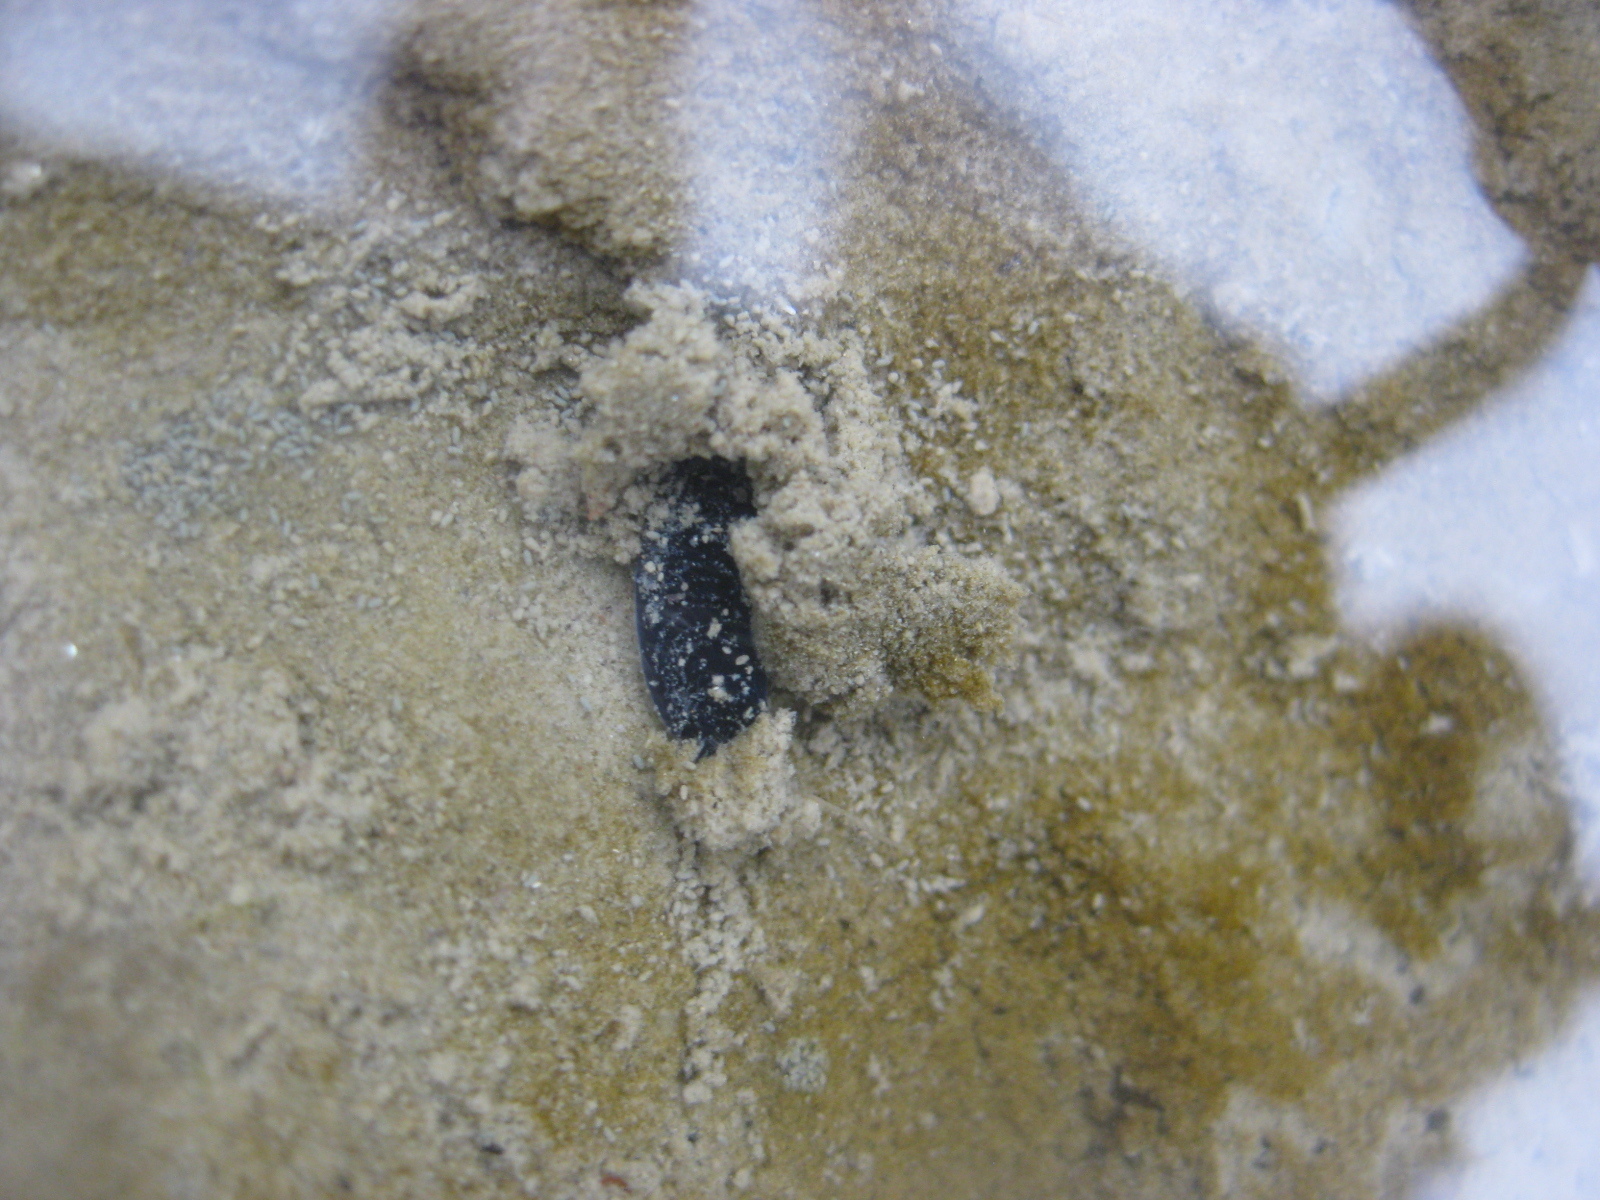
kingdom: Animalia
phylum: Mollusca
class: Gastropoda
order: Cephalaspidea
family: Aglajidae
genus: Melanochlamys
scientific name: Melanochlamys cylindrica
